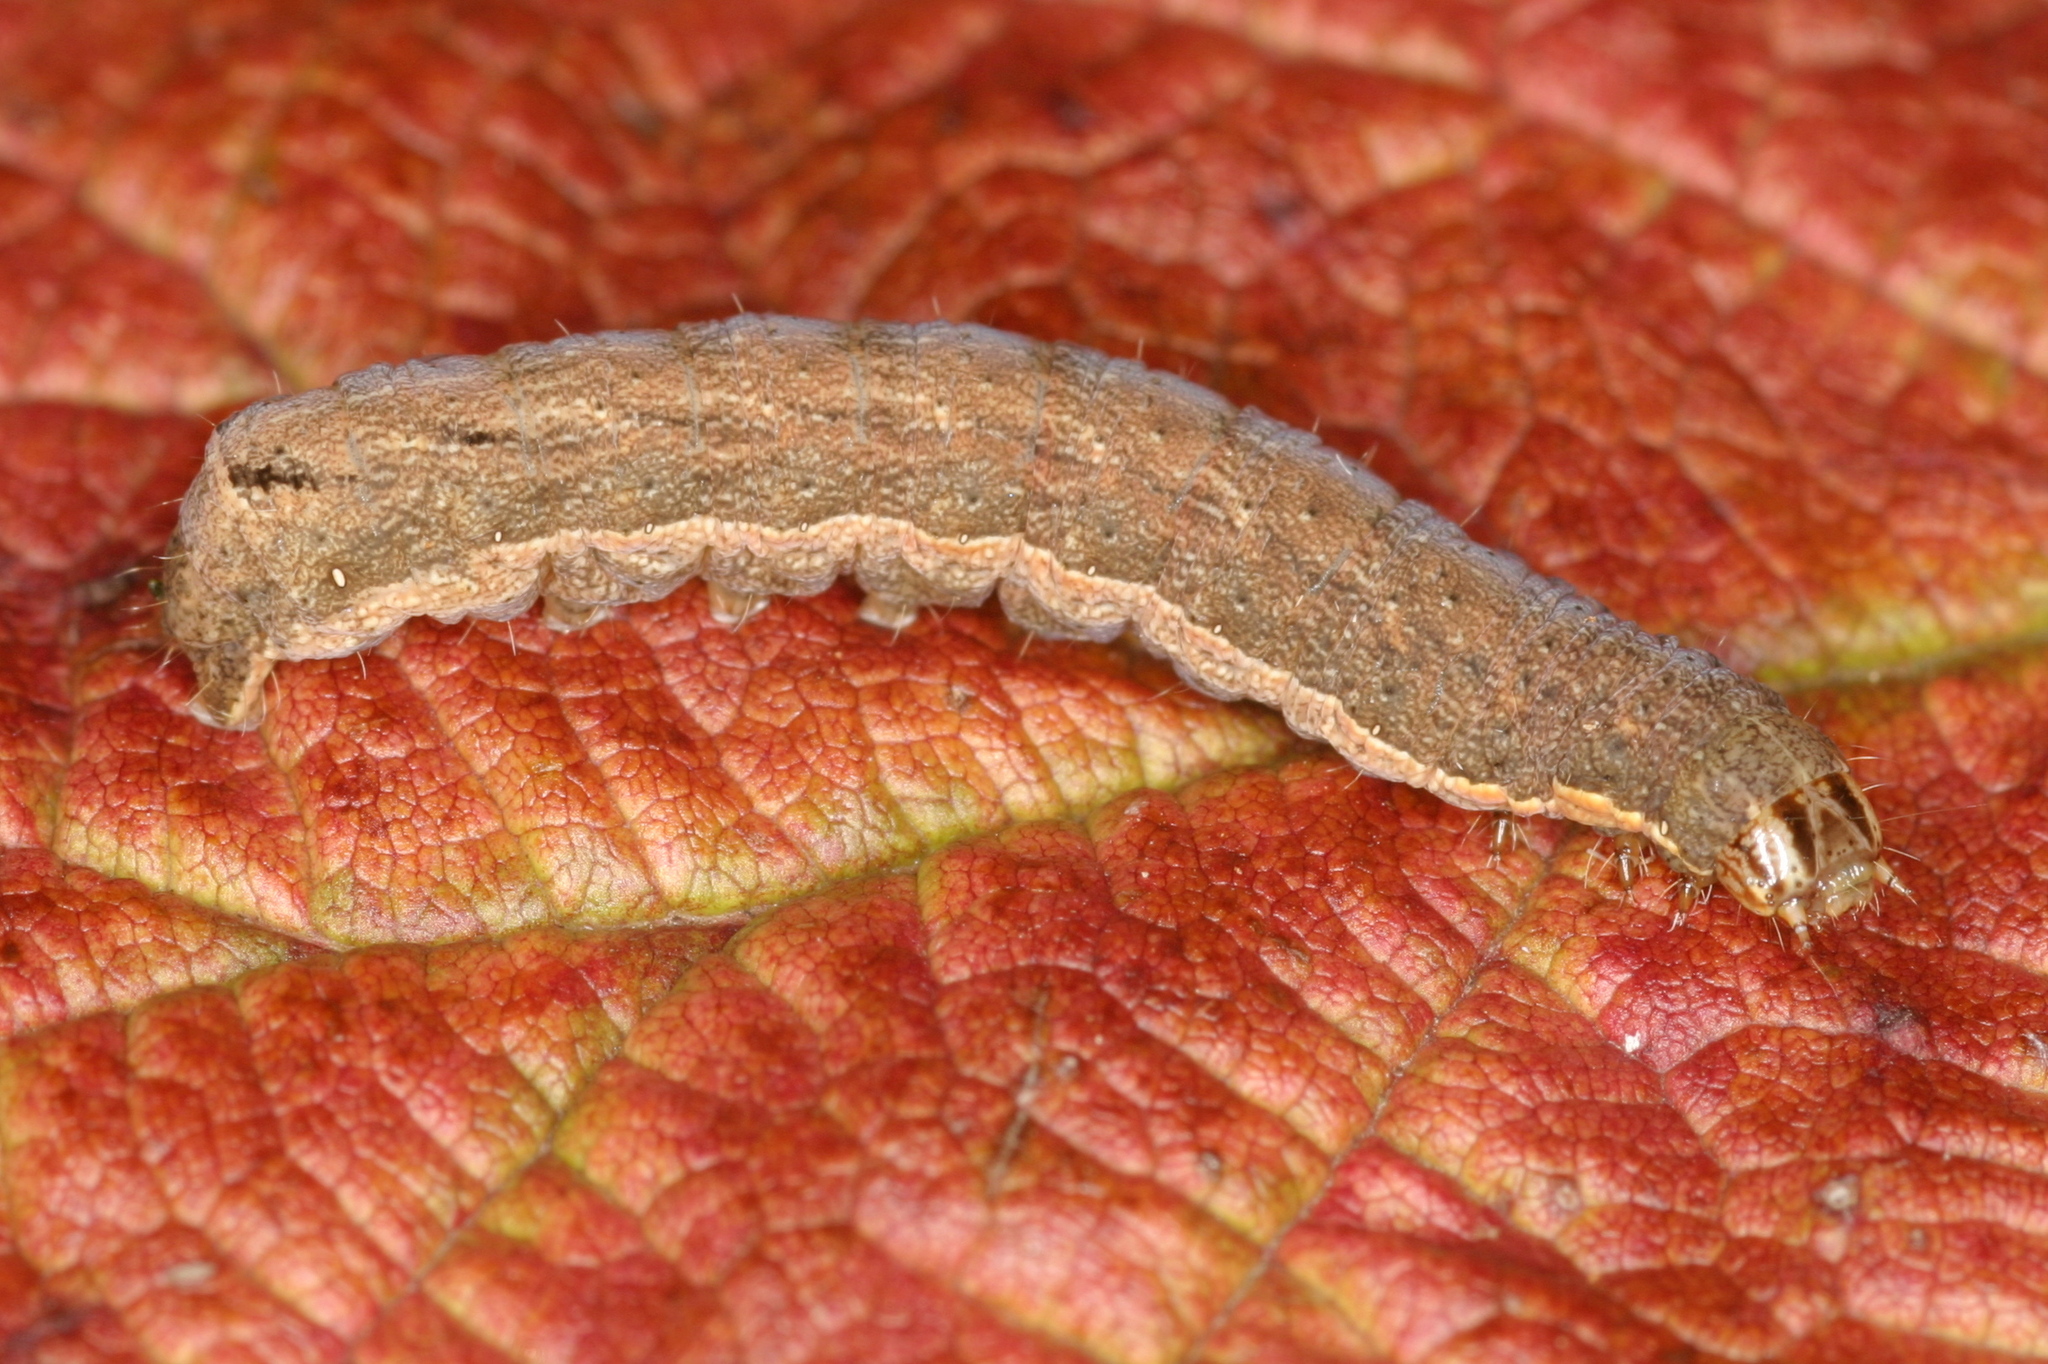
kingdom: Animalia
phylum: Arthropoda
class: Insecta
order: Lepidoptera
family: Noctuidae
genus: Xestia
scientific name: Xestia c-nigrum
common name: Setaceous hebrew character
